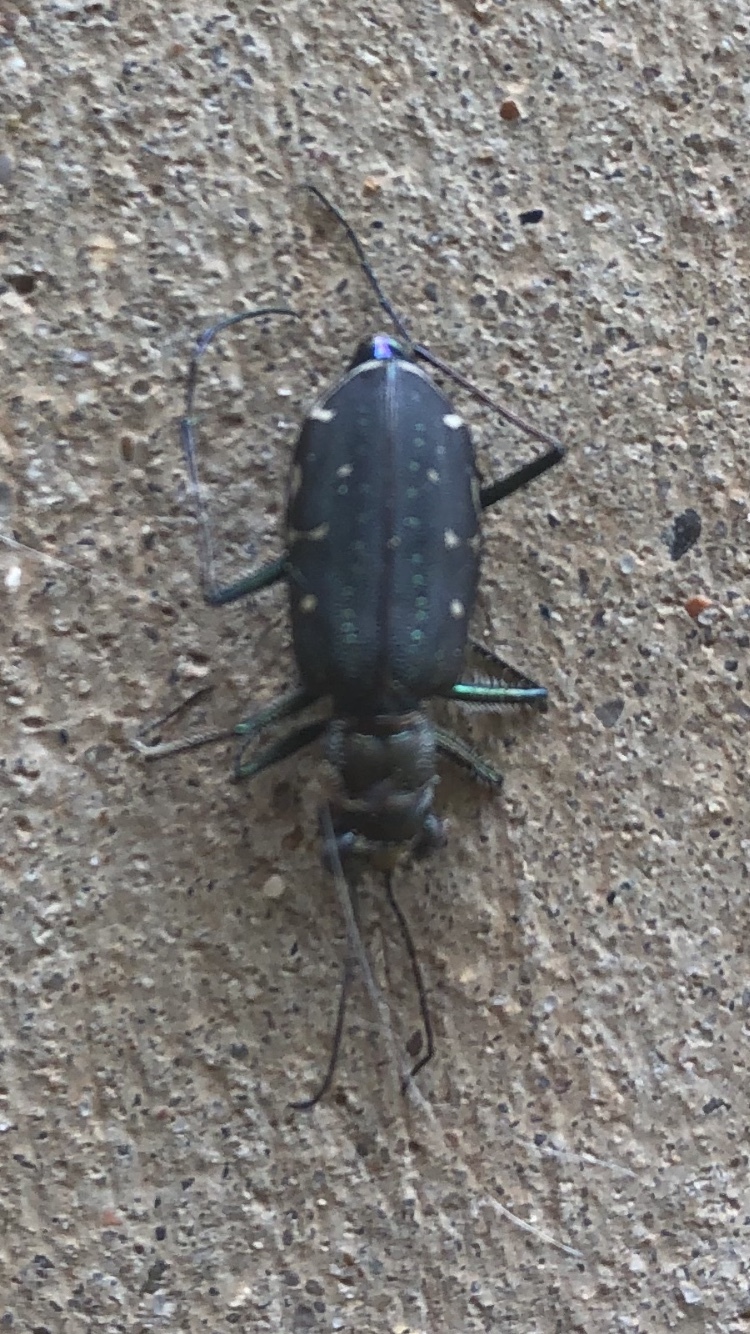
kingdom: Animalia
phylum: Arthropoda
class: Insecta
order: Coleoptera
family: Carabidae
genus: Cicindela
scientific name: Cicindela punctulata
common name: Punctured tiger beetle
